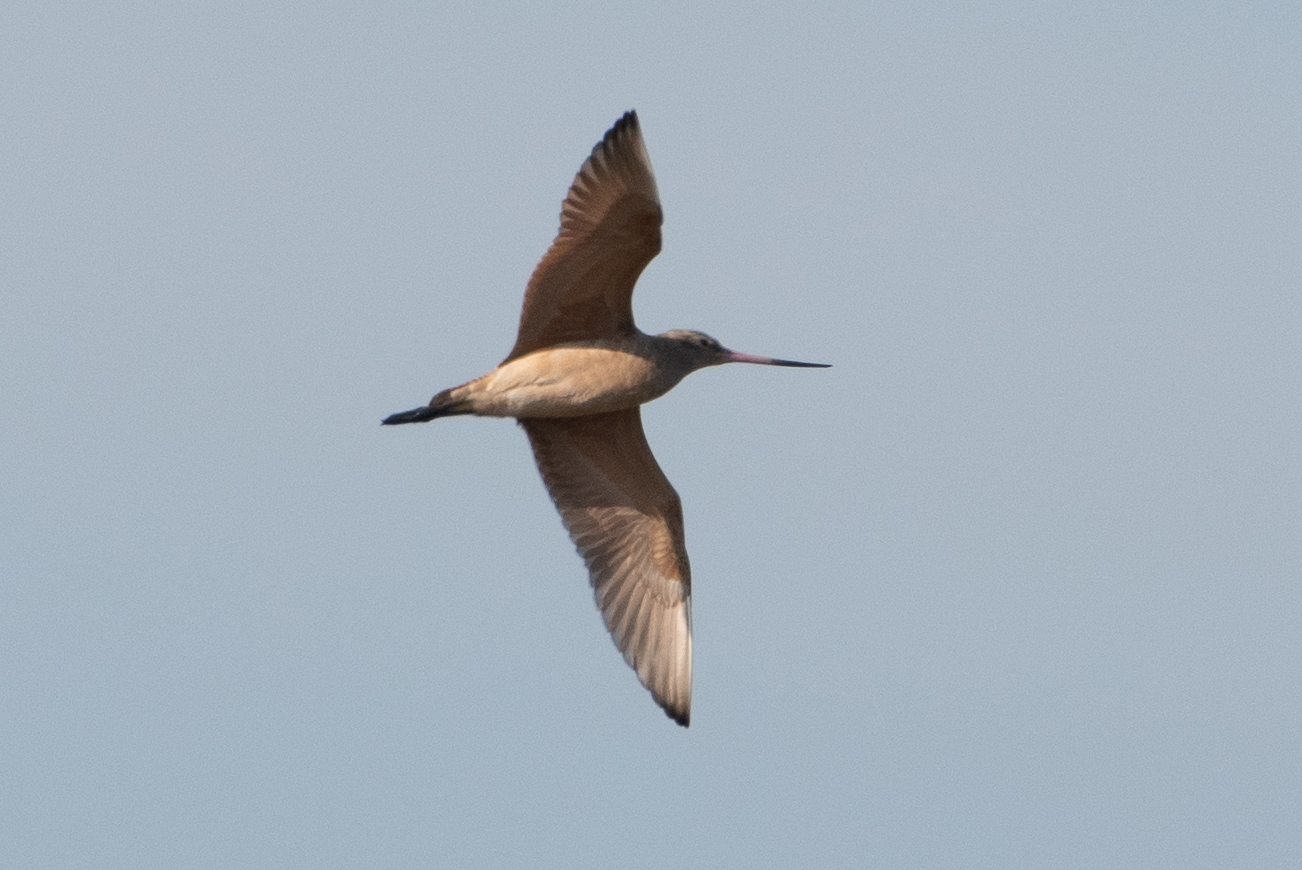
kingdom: Animalia
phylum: Chordata
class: Aves
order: Charadriiformes
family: Scolopacidae
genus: Limosa
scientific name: Limosa fedoa
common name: Marbled godwit
